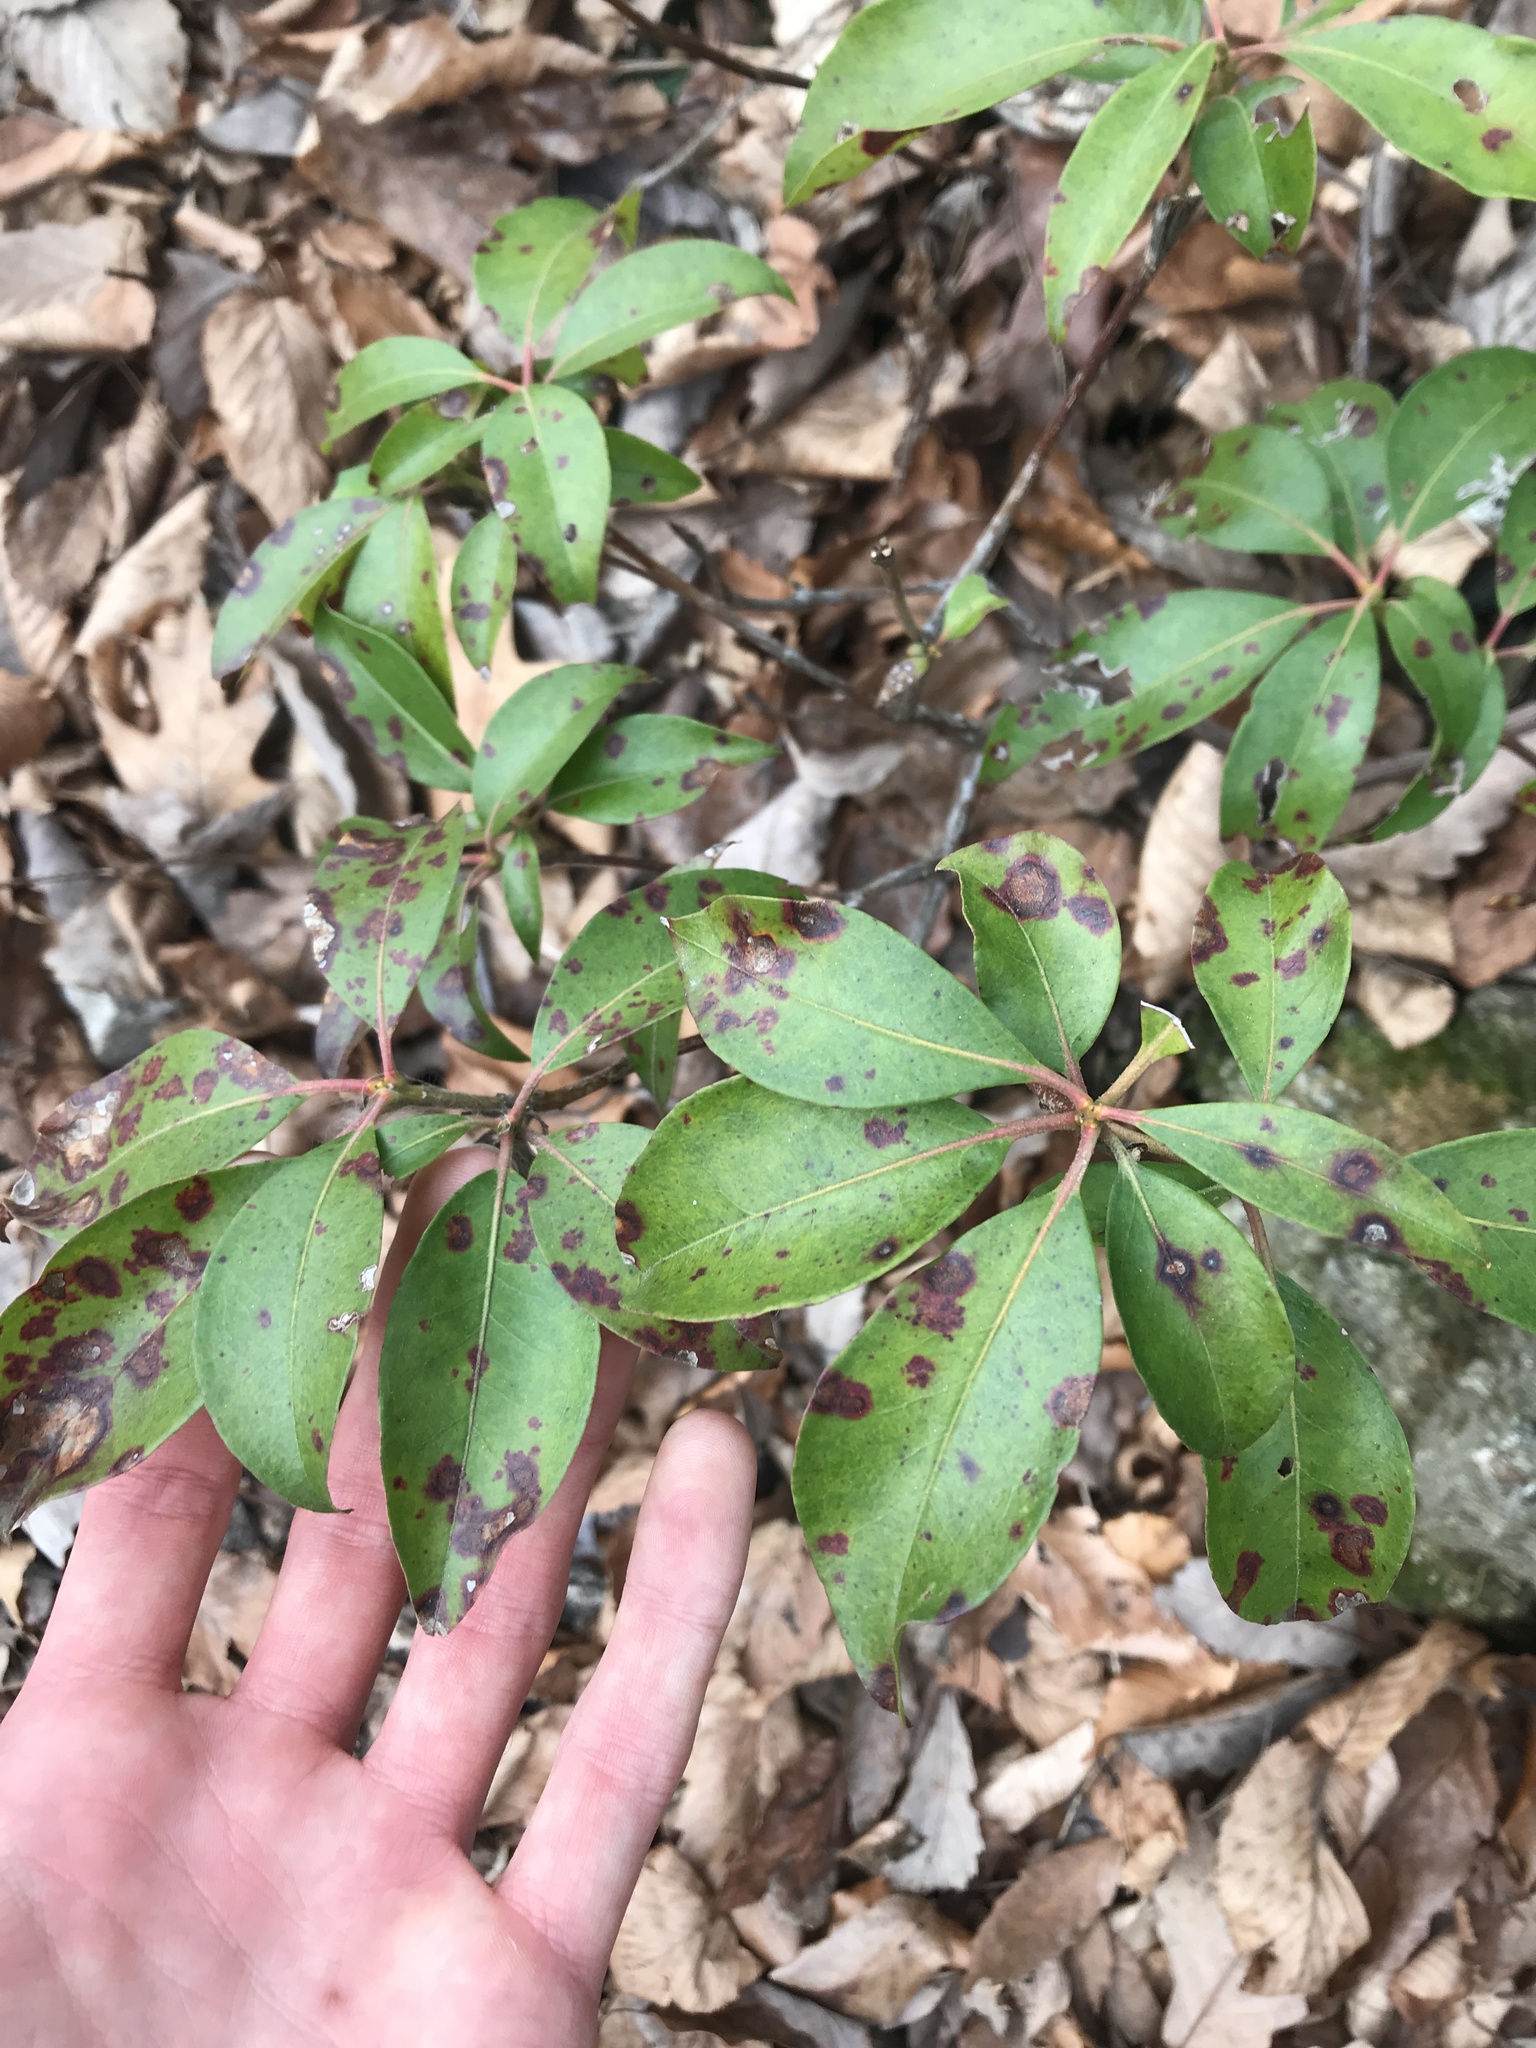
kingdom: Plantae
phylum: Tracheophyta
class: Magnoliopsida
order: Ericales
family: Ericaceae
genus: Kalmia
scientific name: Kalmia latifolia
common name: Mountain-laurel
